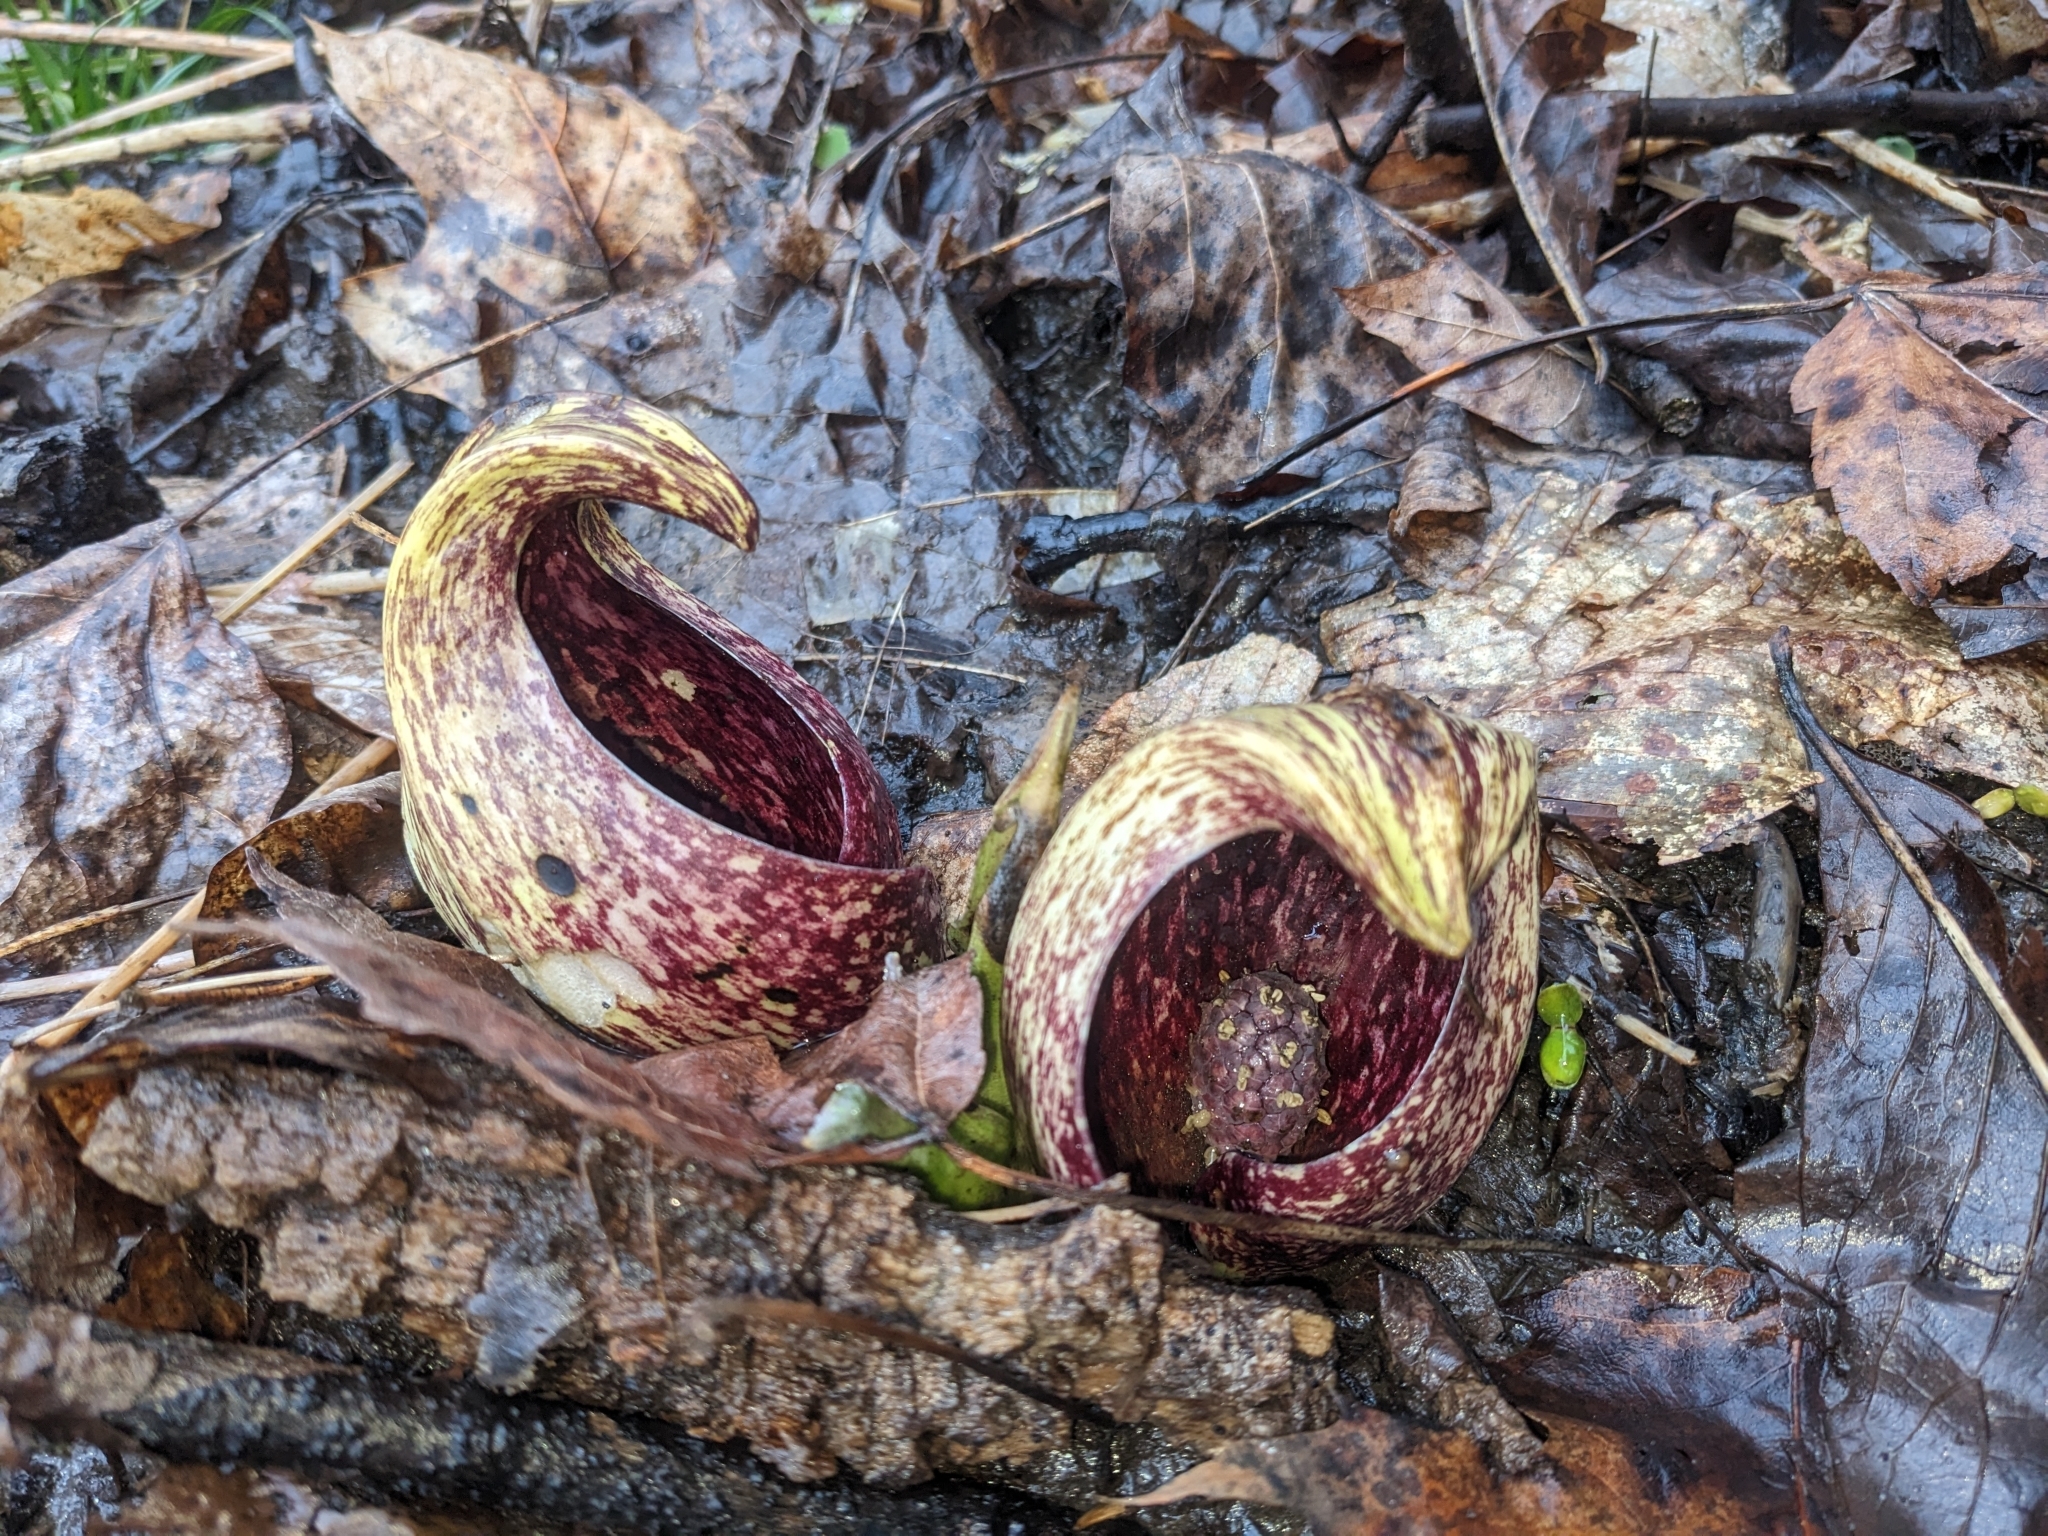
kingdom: Plantae
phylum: Tracheophyta
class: Liliopsida
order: Alismatales
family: Araceae
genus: Symplocarpus
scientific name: Symplocarpus foetidus
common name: Eastern skunk cabbage
